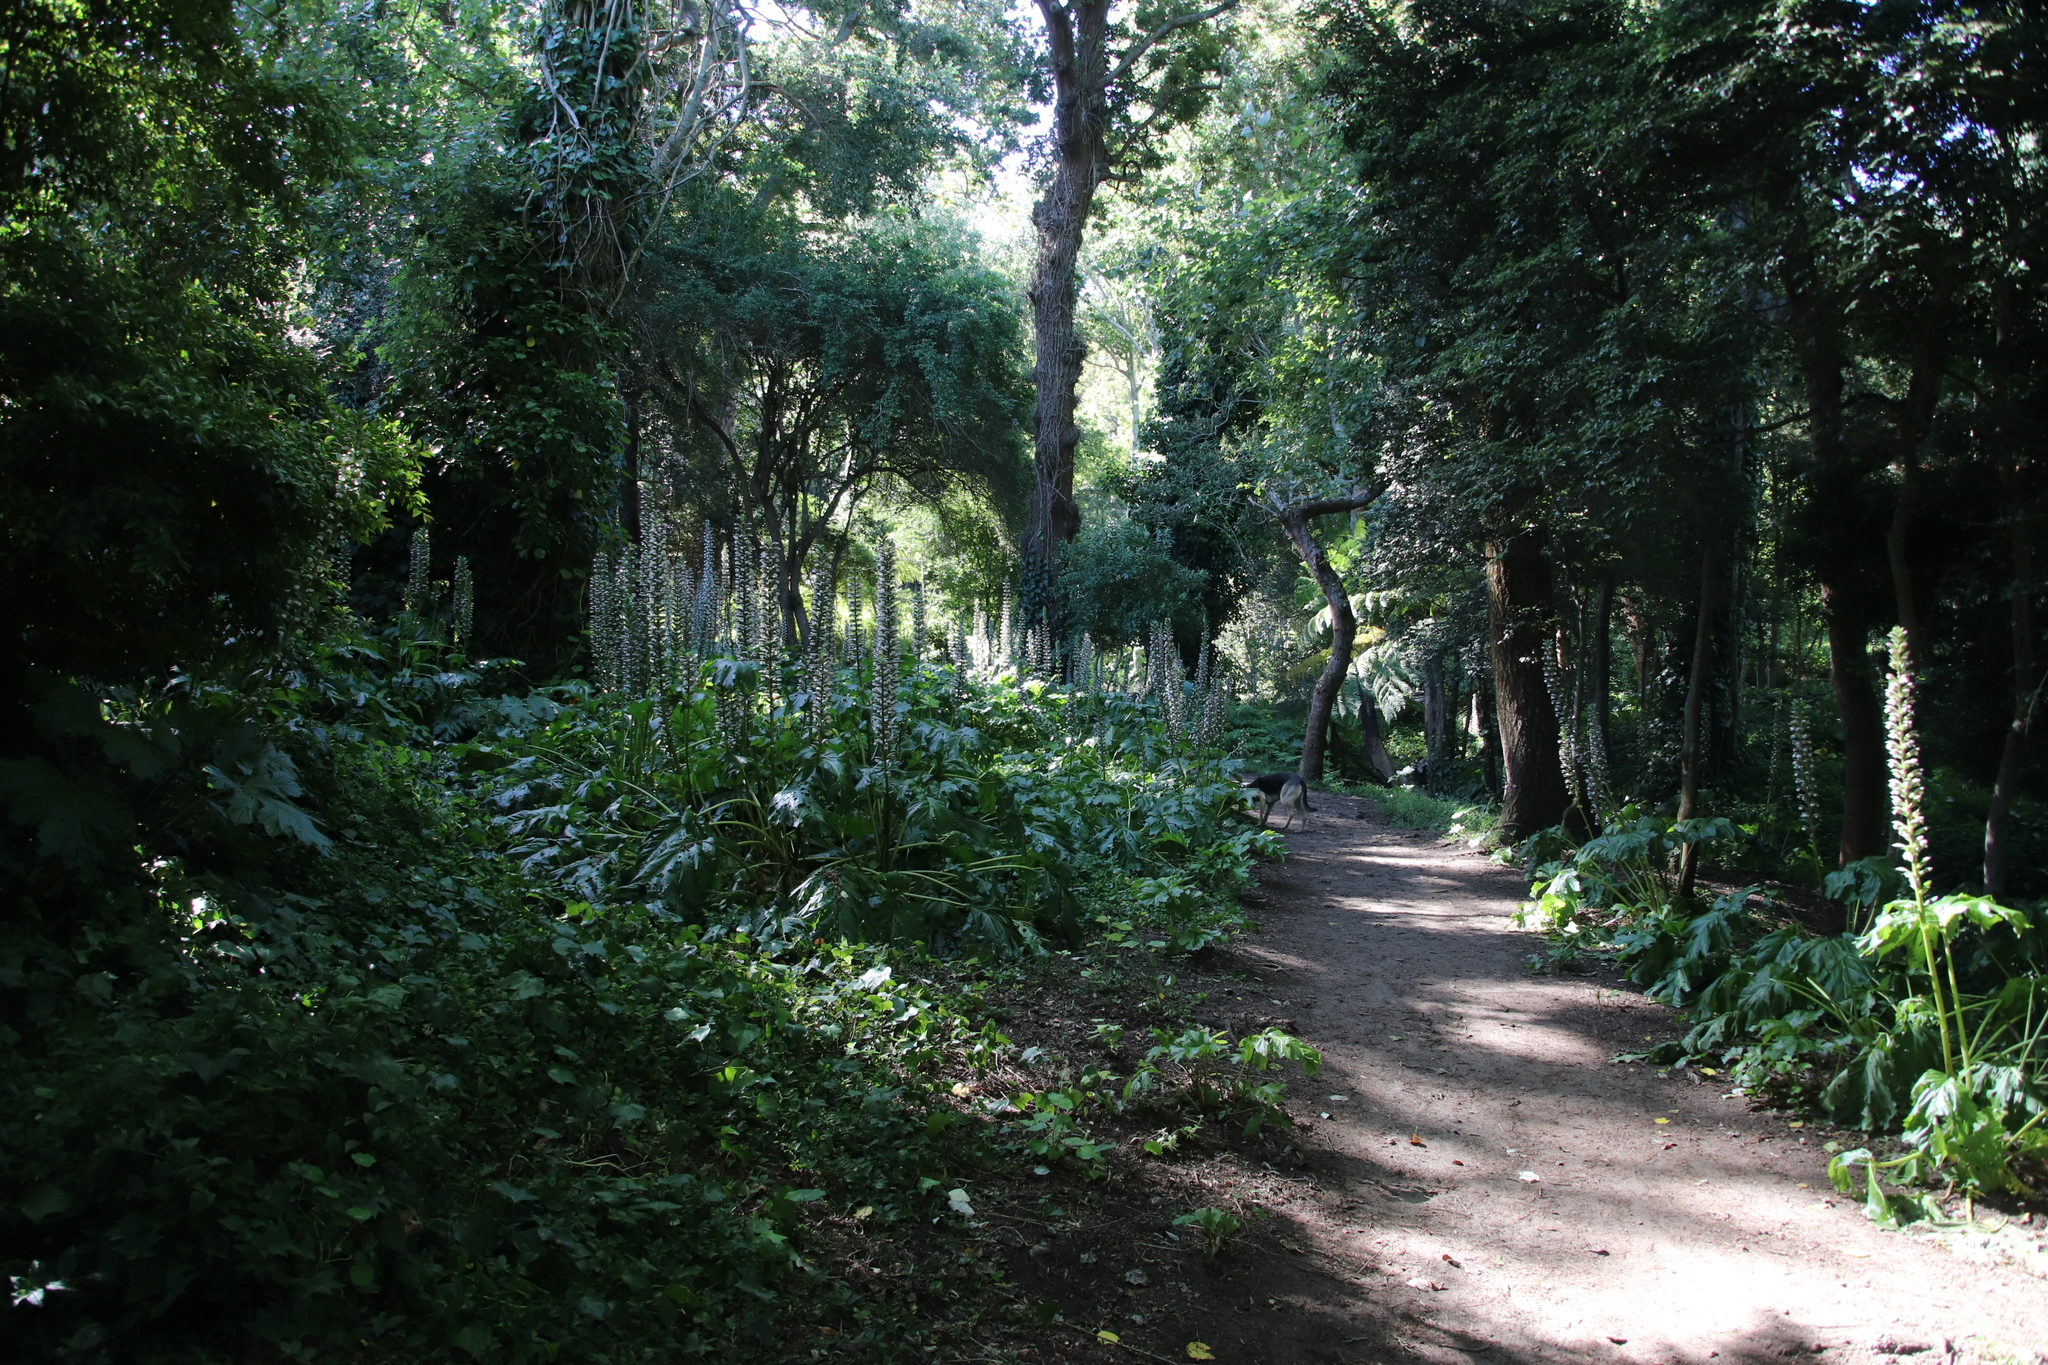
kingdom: Plantae
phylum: Tracheophyta
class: Magnoliopsida
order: Lamiales
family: Acanthaceae
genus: Acanthus
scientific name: Acanthus mollis
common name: Bear's-breech
